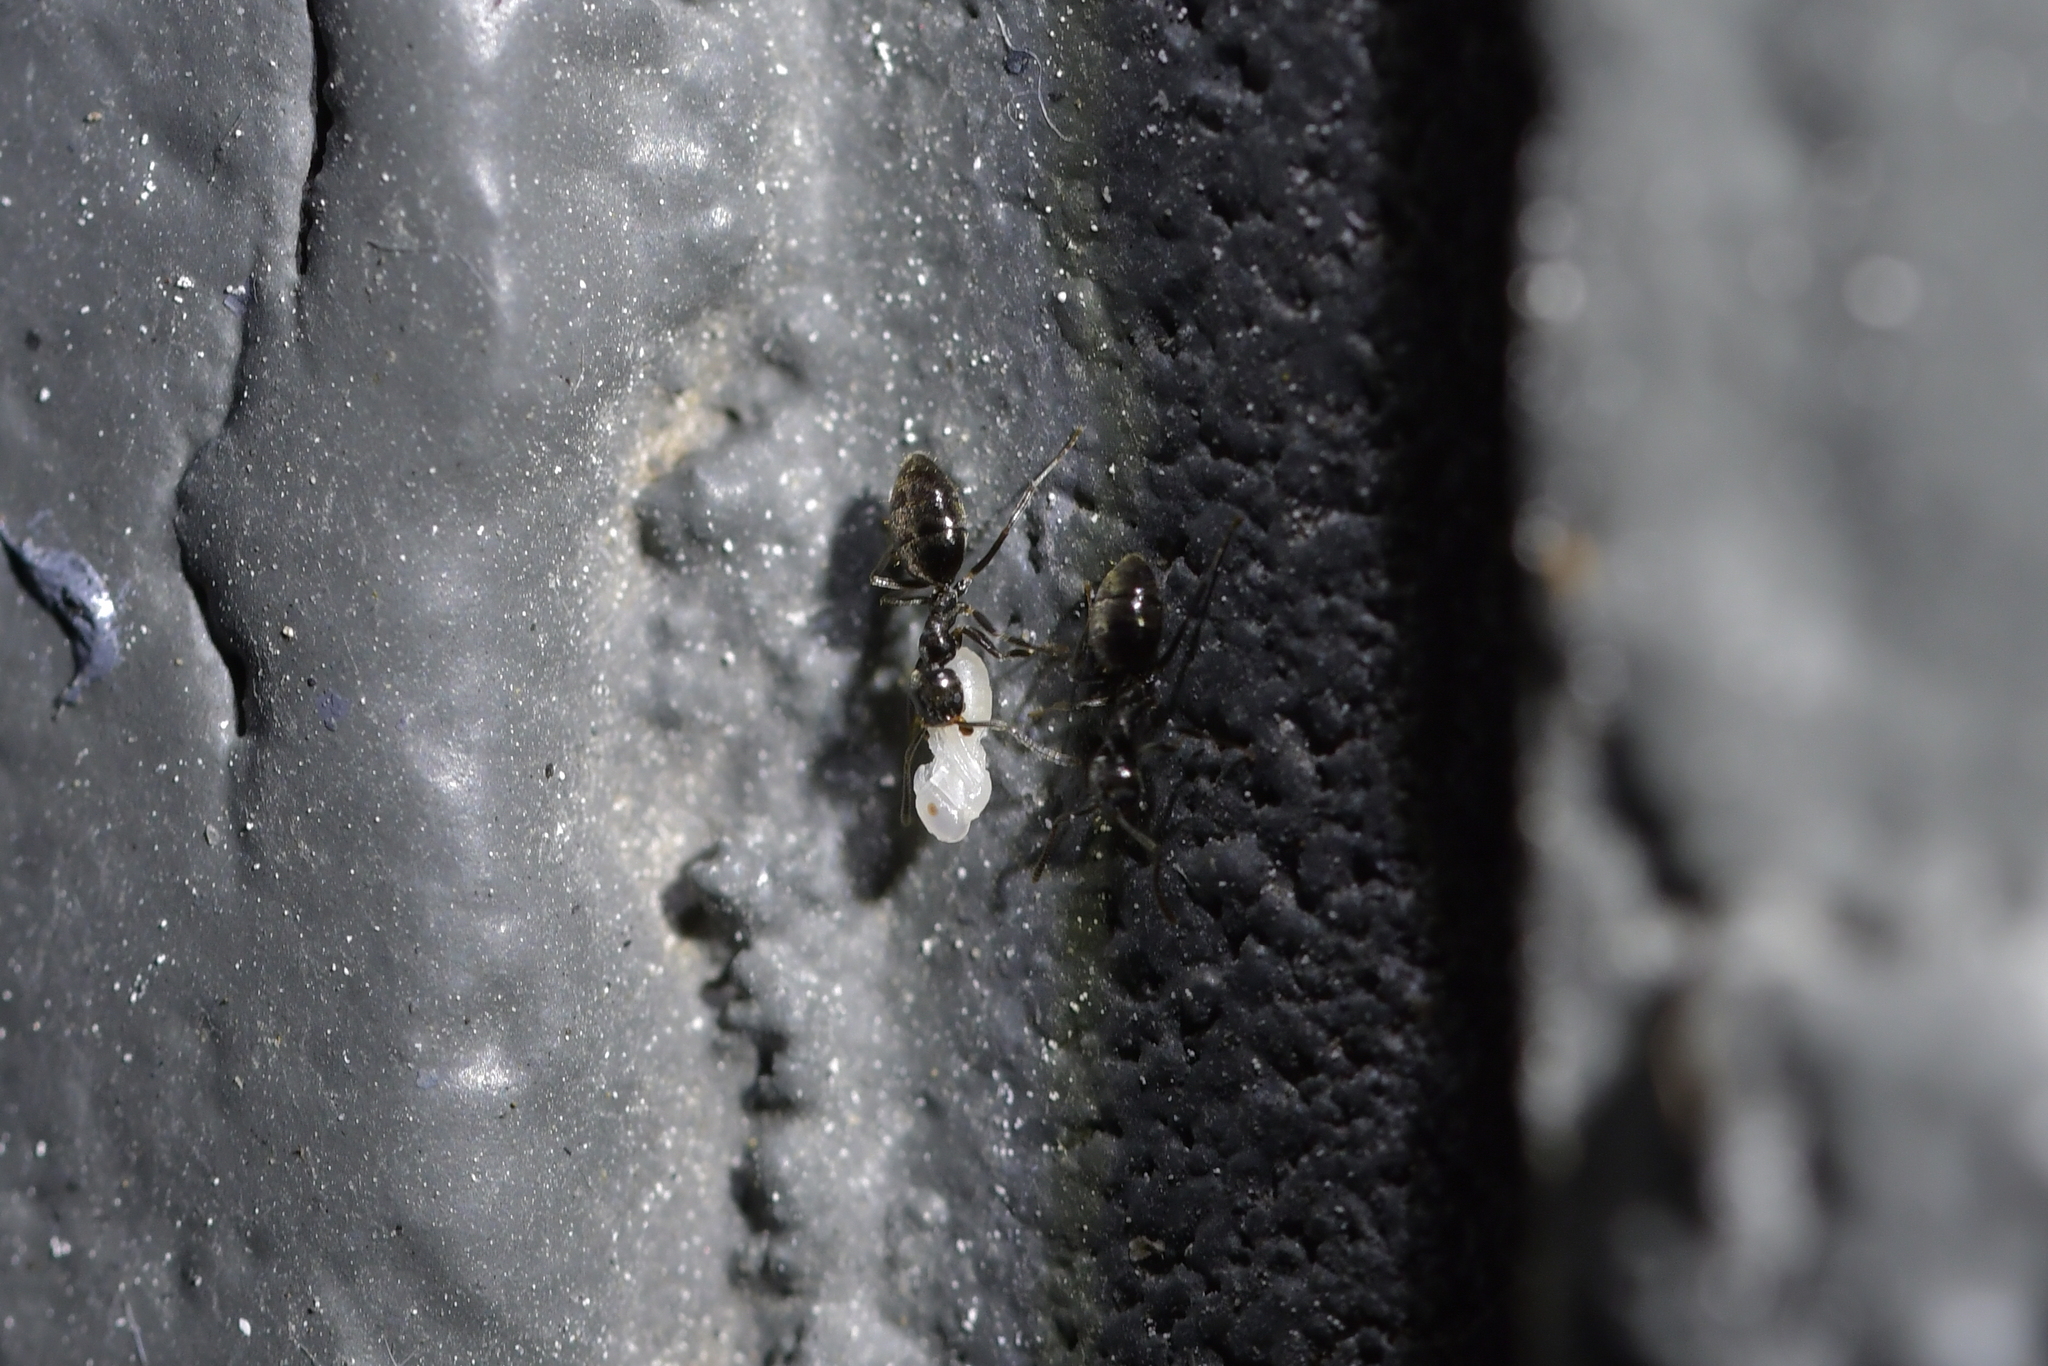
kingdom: Animalia
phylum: Arthropoda
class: Insecta
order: Hymenoptera
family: Formicidae
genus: Technomyrmex
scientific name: Technomyrmex jocosus
